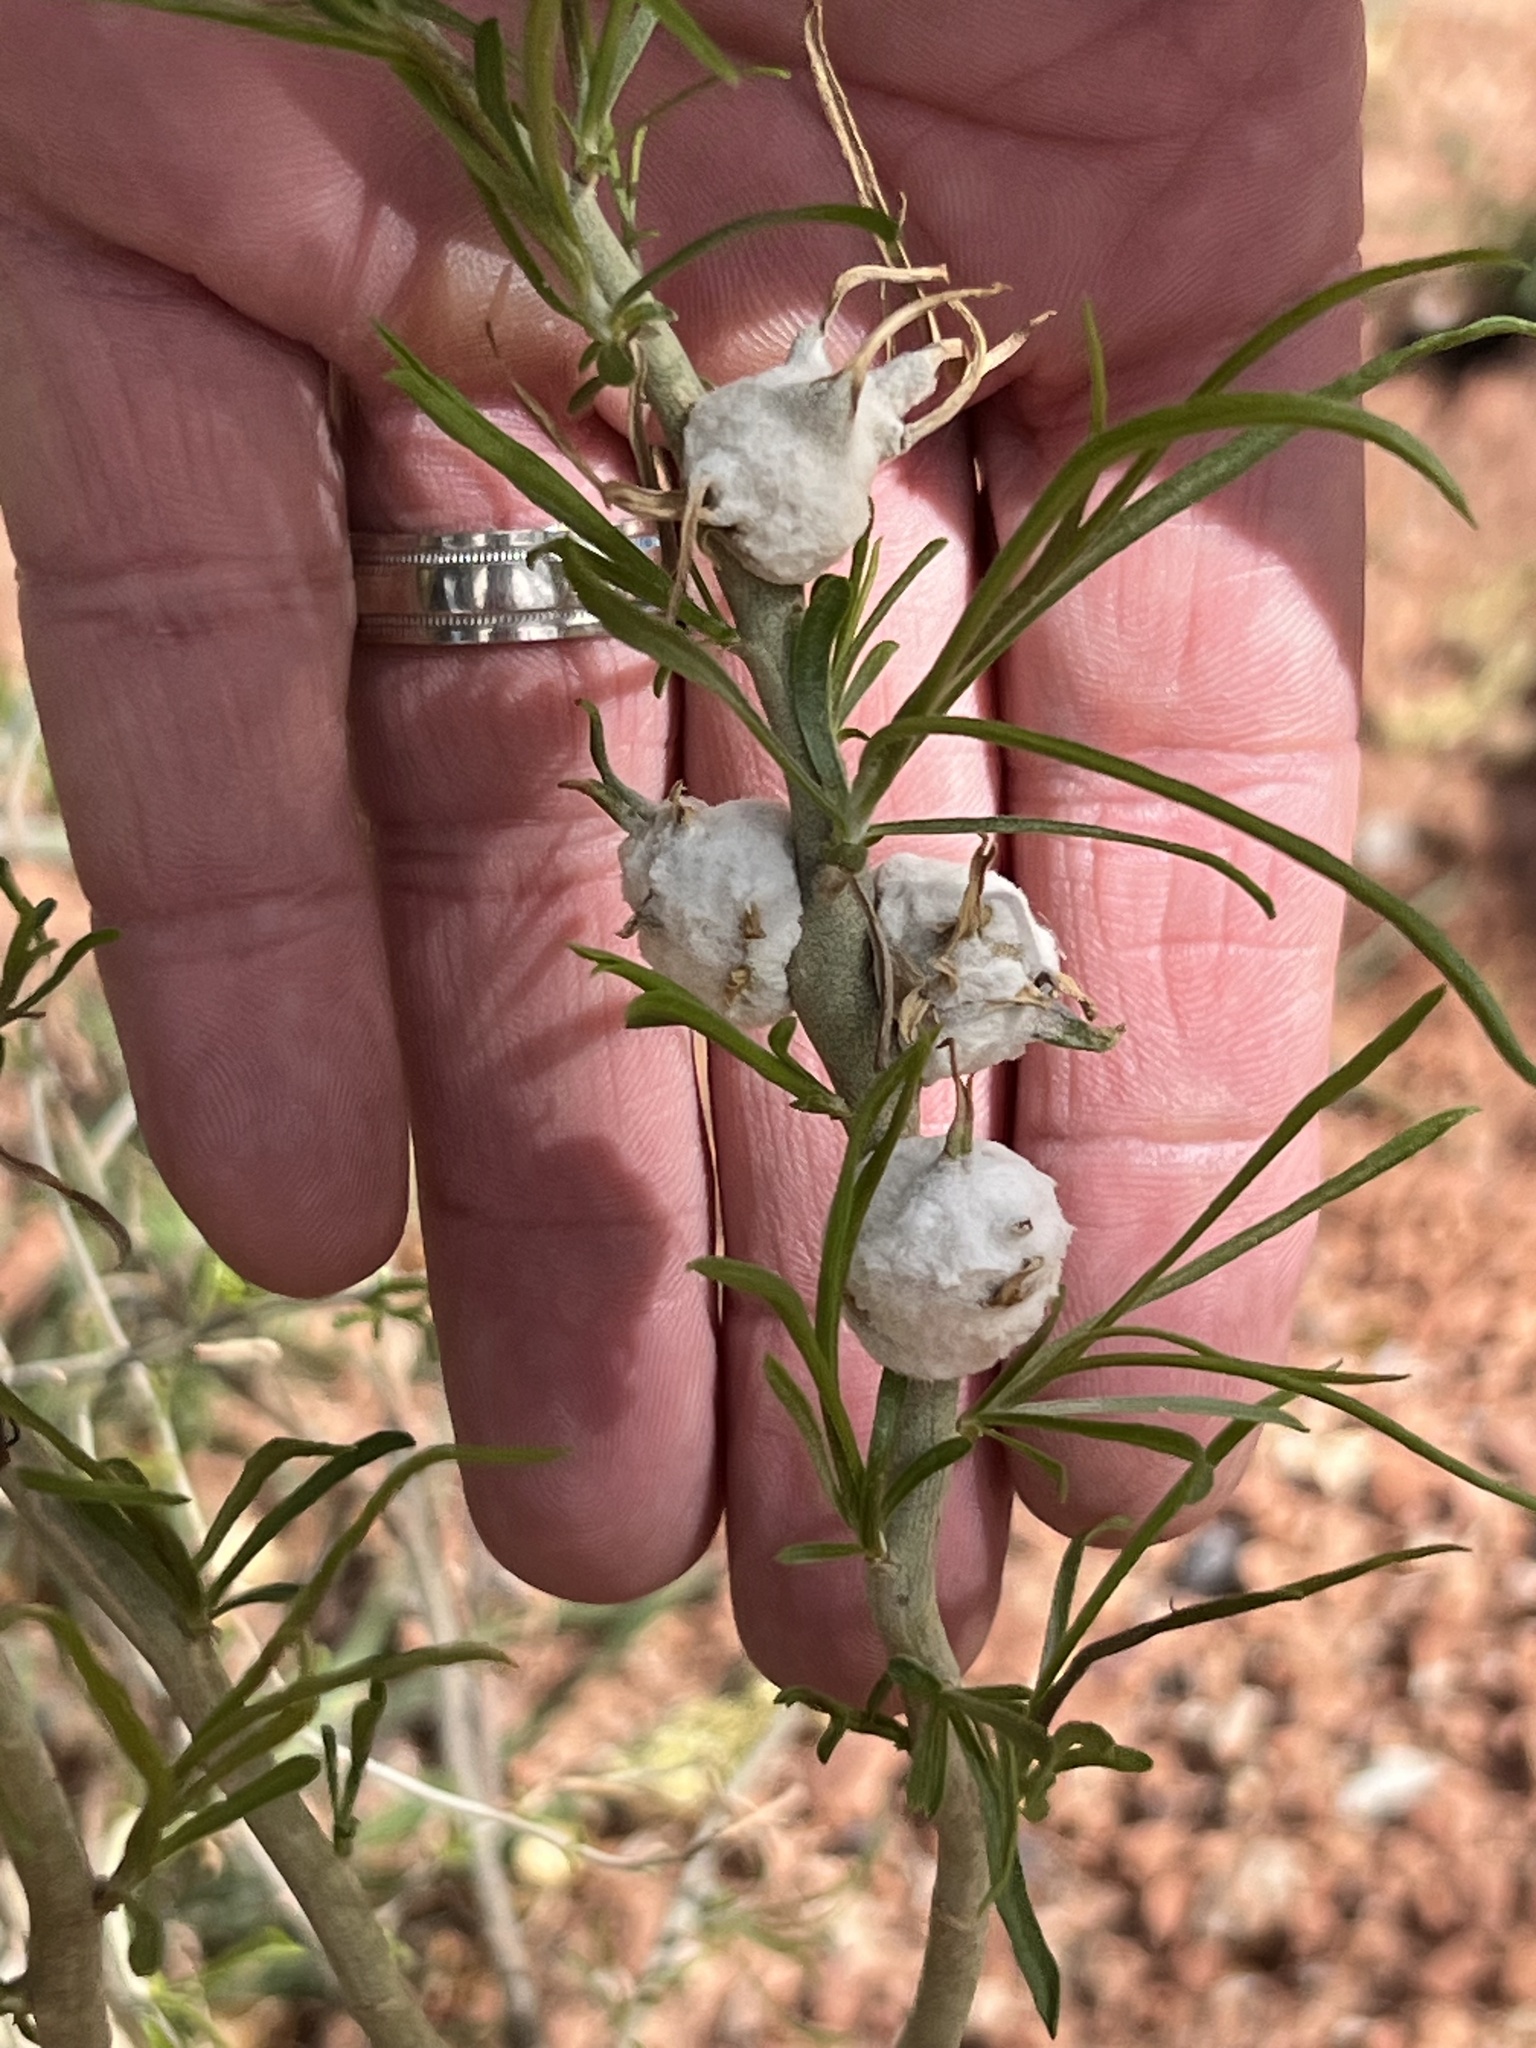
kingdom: Animalia
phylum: Arthropoda
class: Insecta
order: Diptera
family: Tephritidae
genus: Aciurina
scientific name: Aciurina bigeloviae
